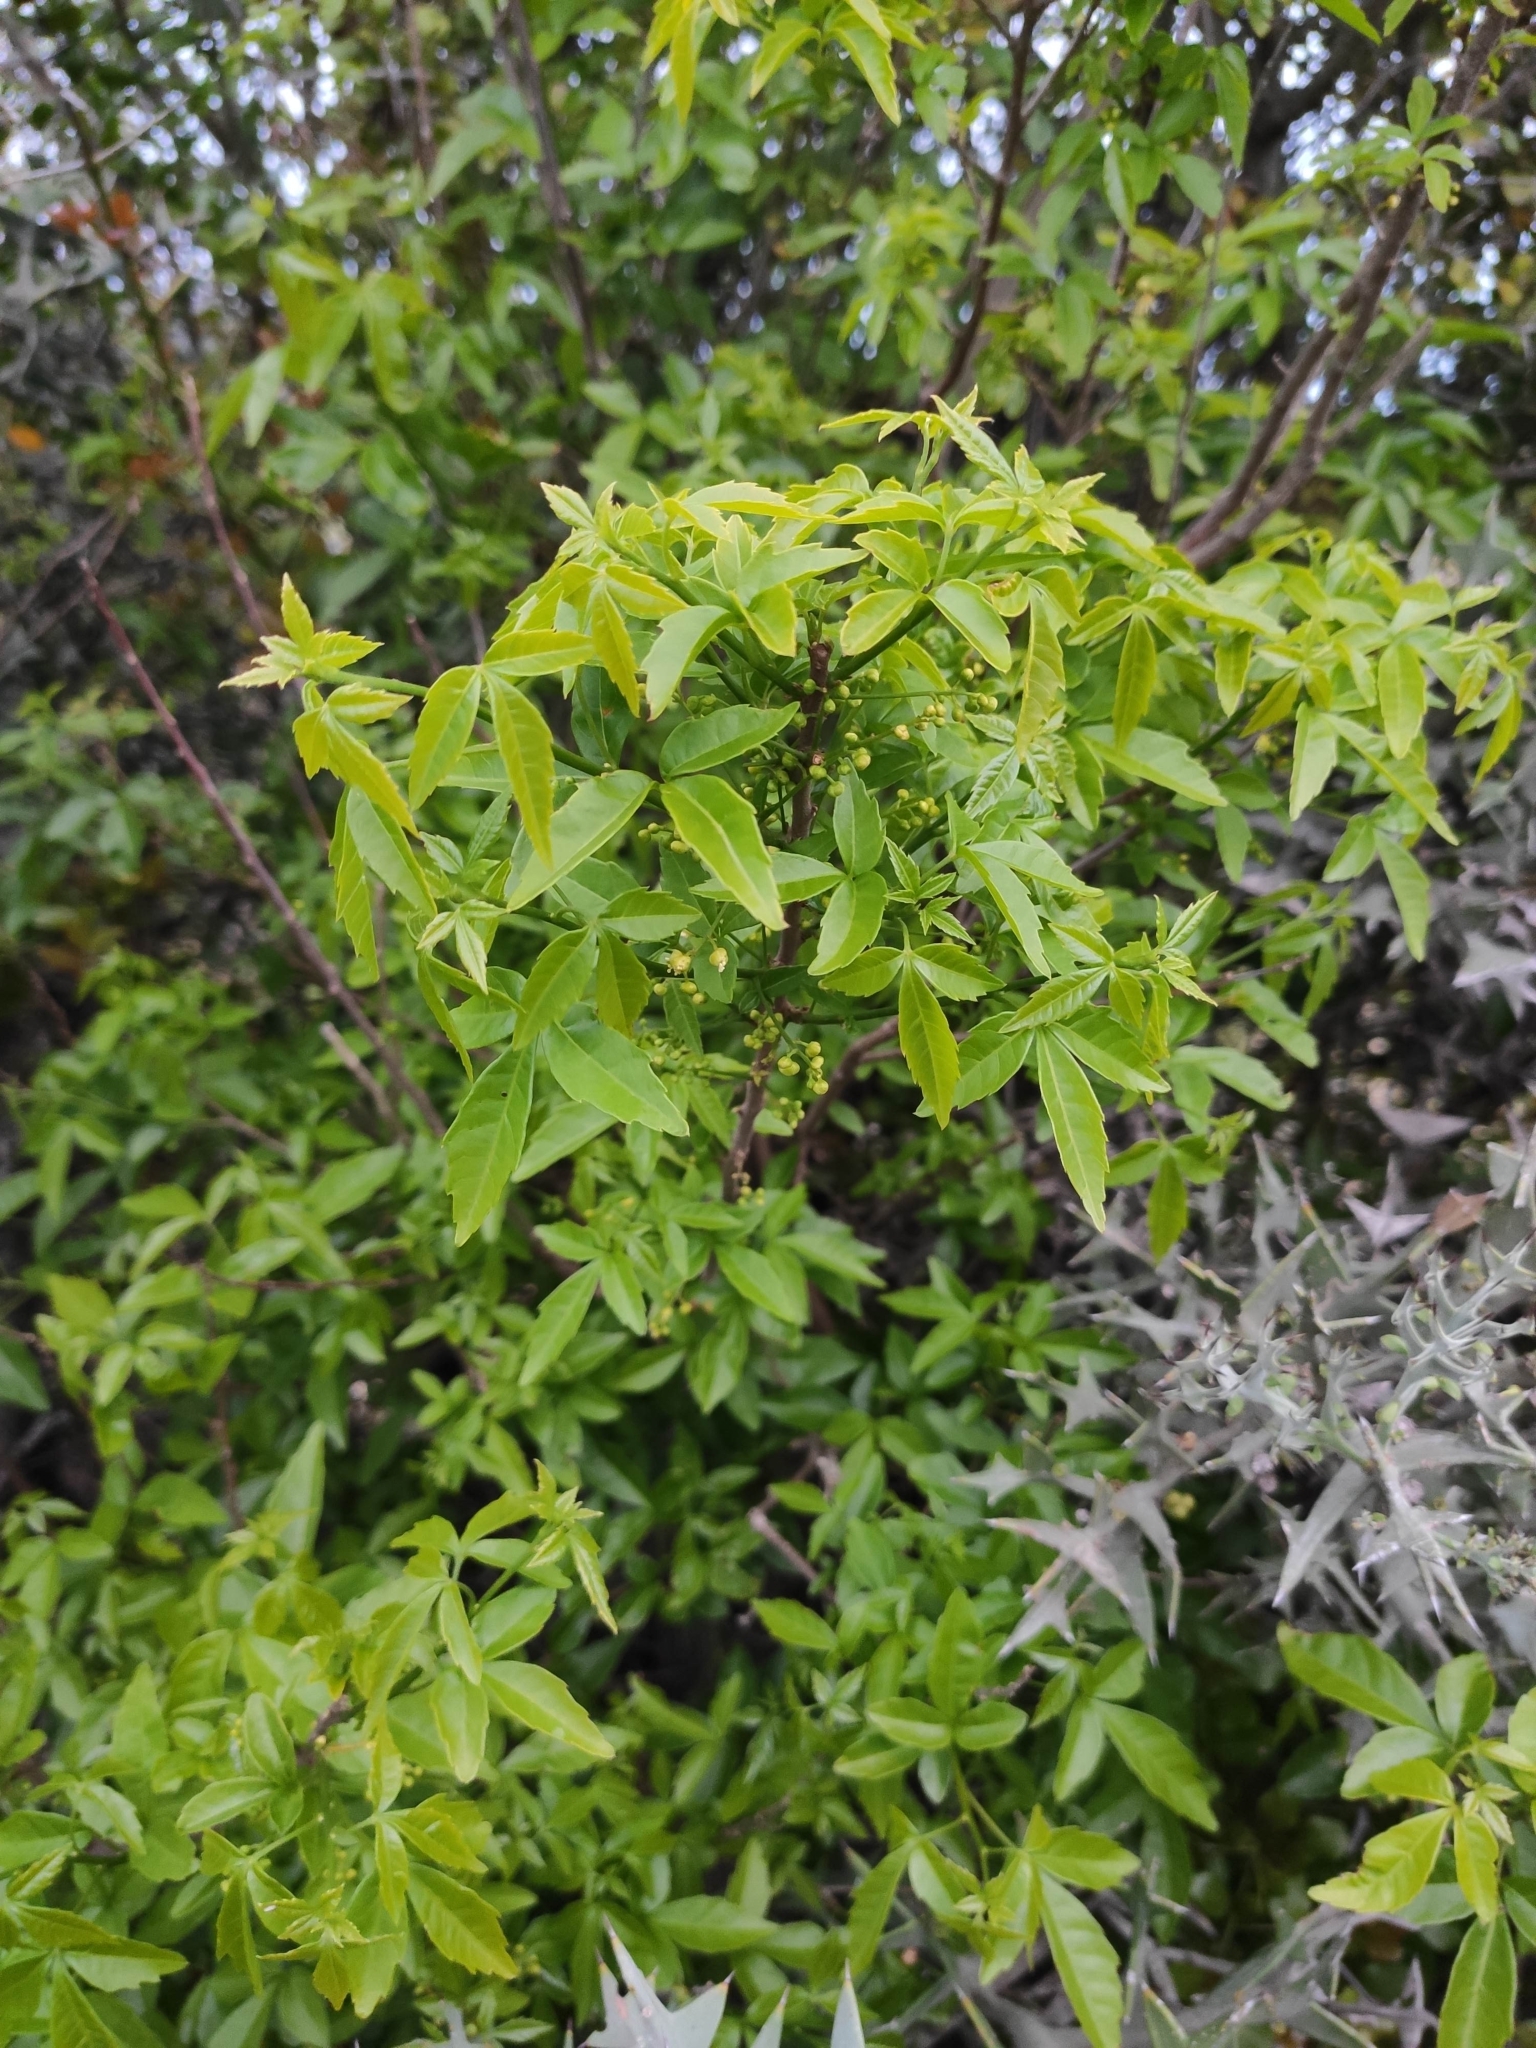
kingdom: Plantae
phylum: Tracheophyta
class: Magnoliopsida
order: Sapindales
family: Sapindaceae
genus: Allophylus
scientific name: Allophylus edulis
